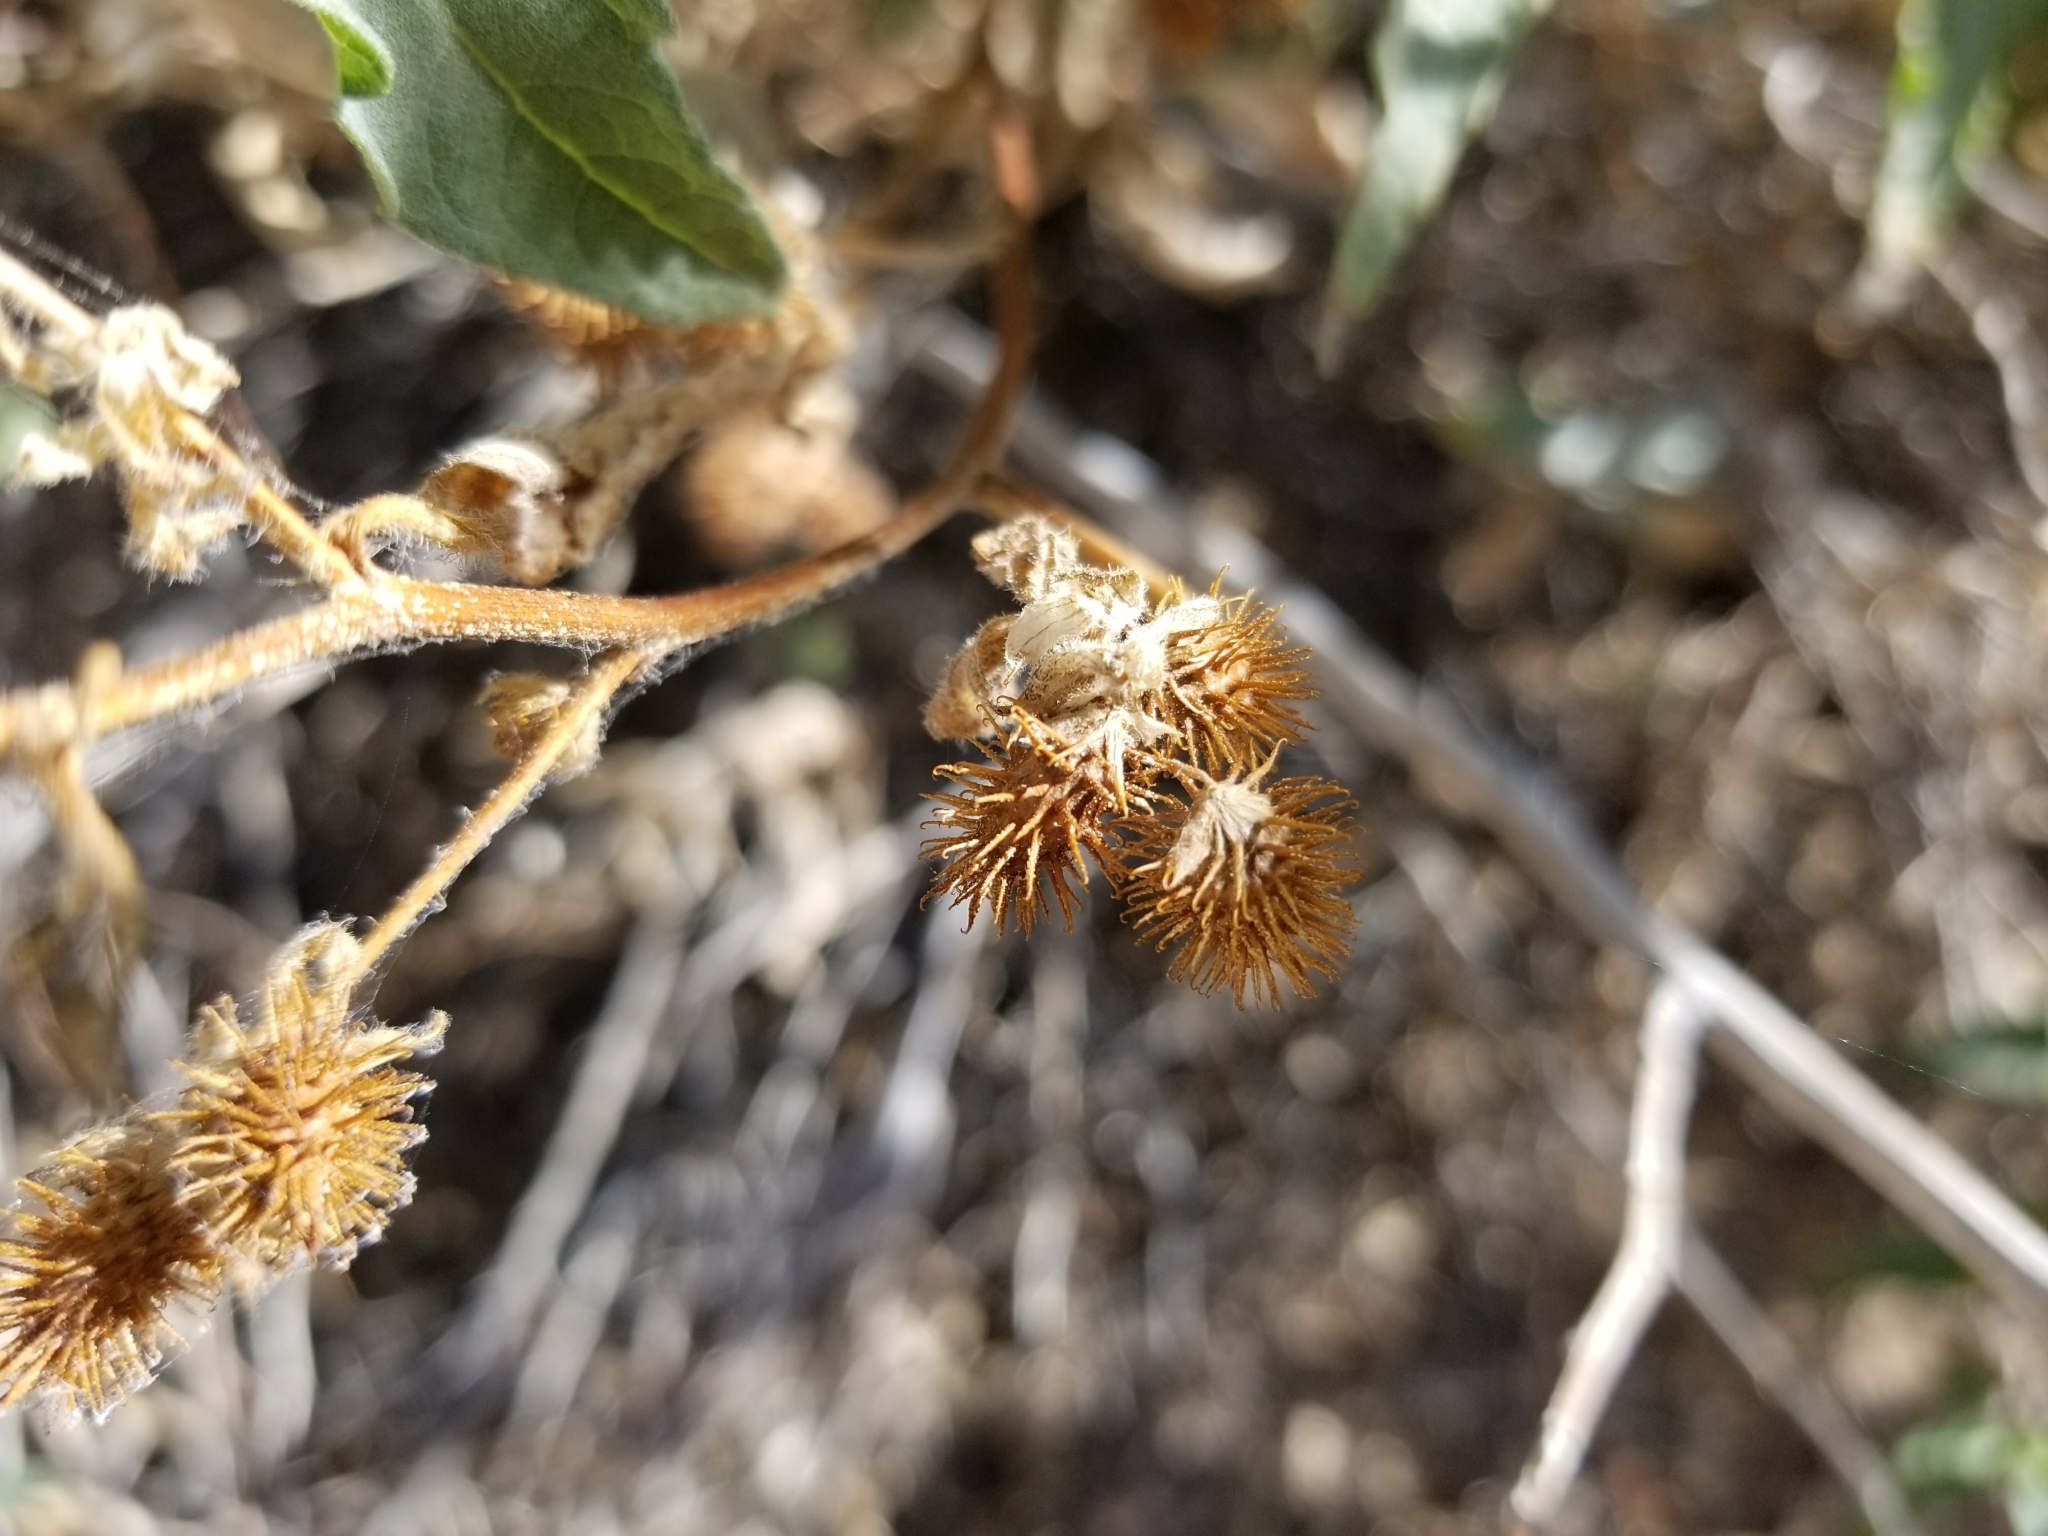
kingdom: Plantae
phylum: Tracheophyta
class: Magnoliopsida
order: Cucurbitales
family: Cucurbitaceae
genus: Echinopepon
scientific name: Echinopepon bigelovii
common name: Desert starvine
